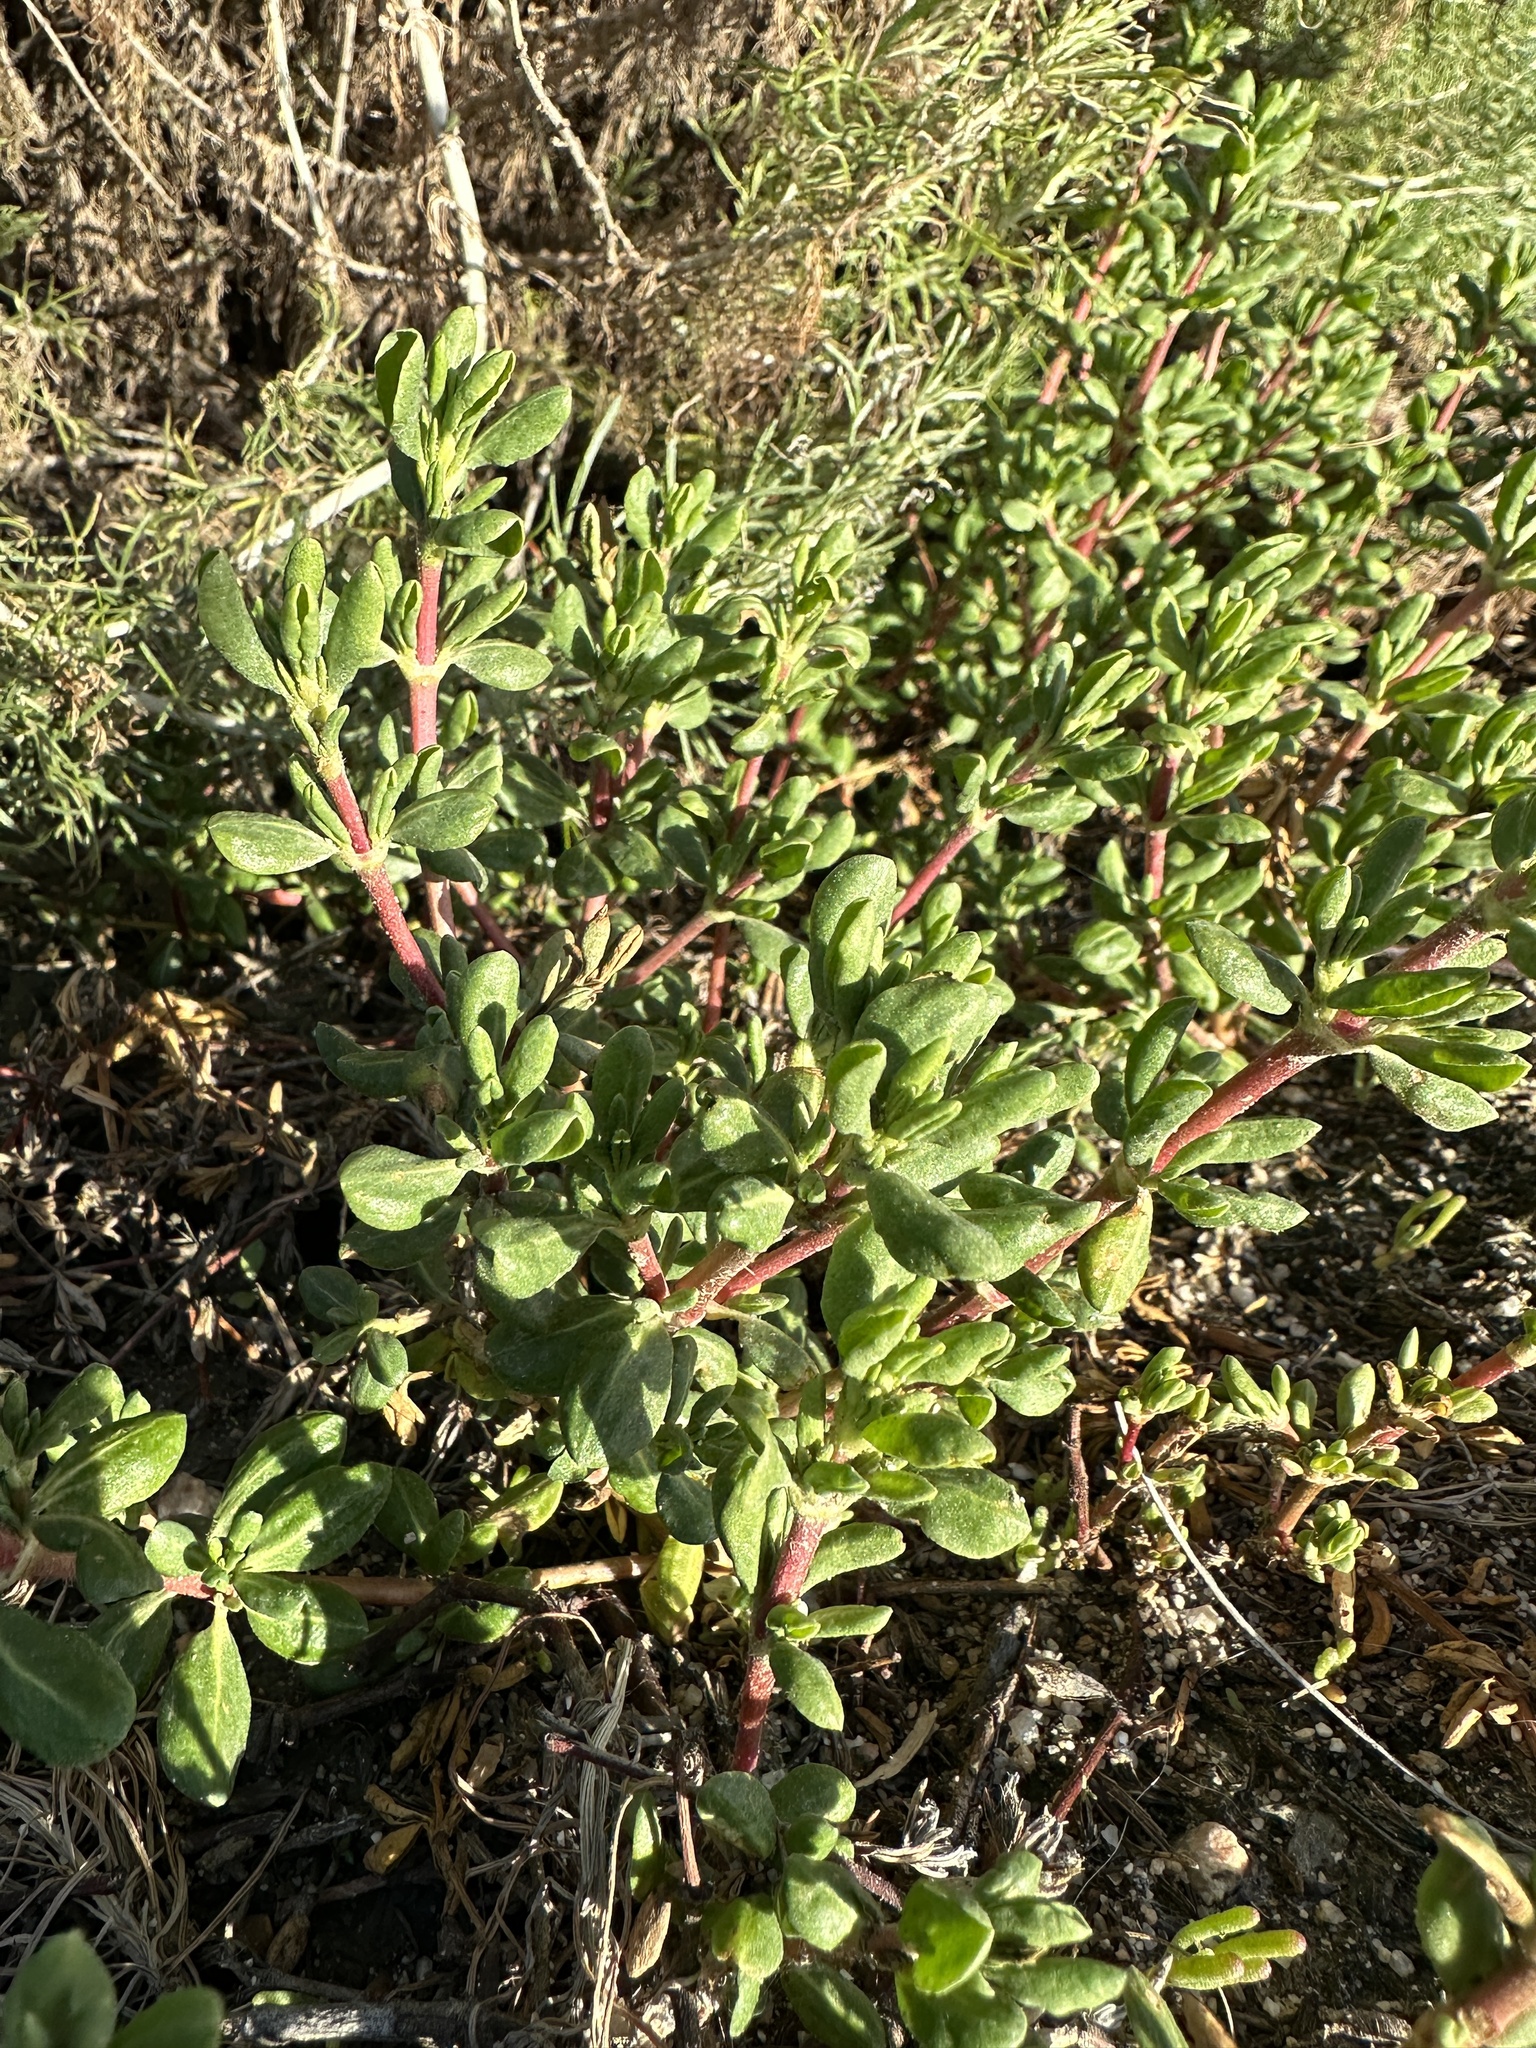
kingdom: Plantae
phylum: Tracheophyta
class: Magnoliopsida
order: Caryophyllales
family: Frankeniaceae
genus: Frankenia
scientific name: Frankenia salina
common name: Alkali seaheath
